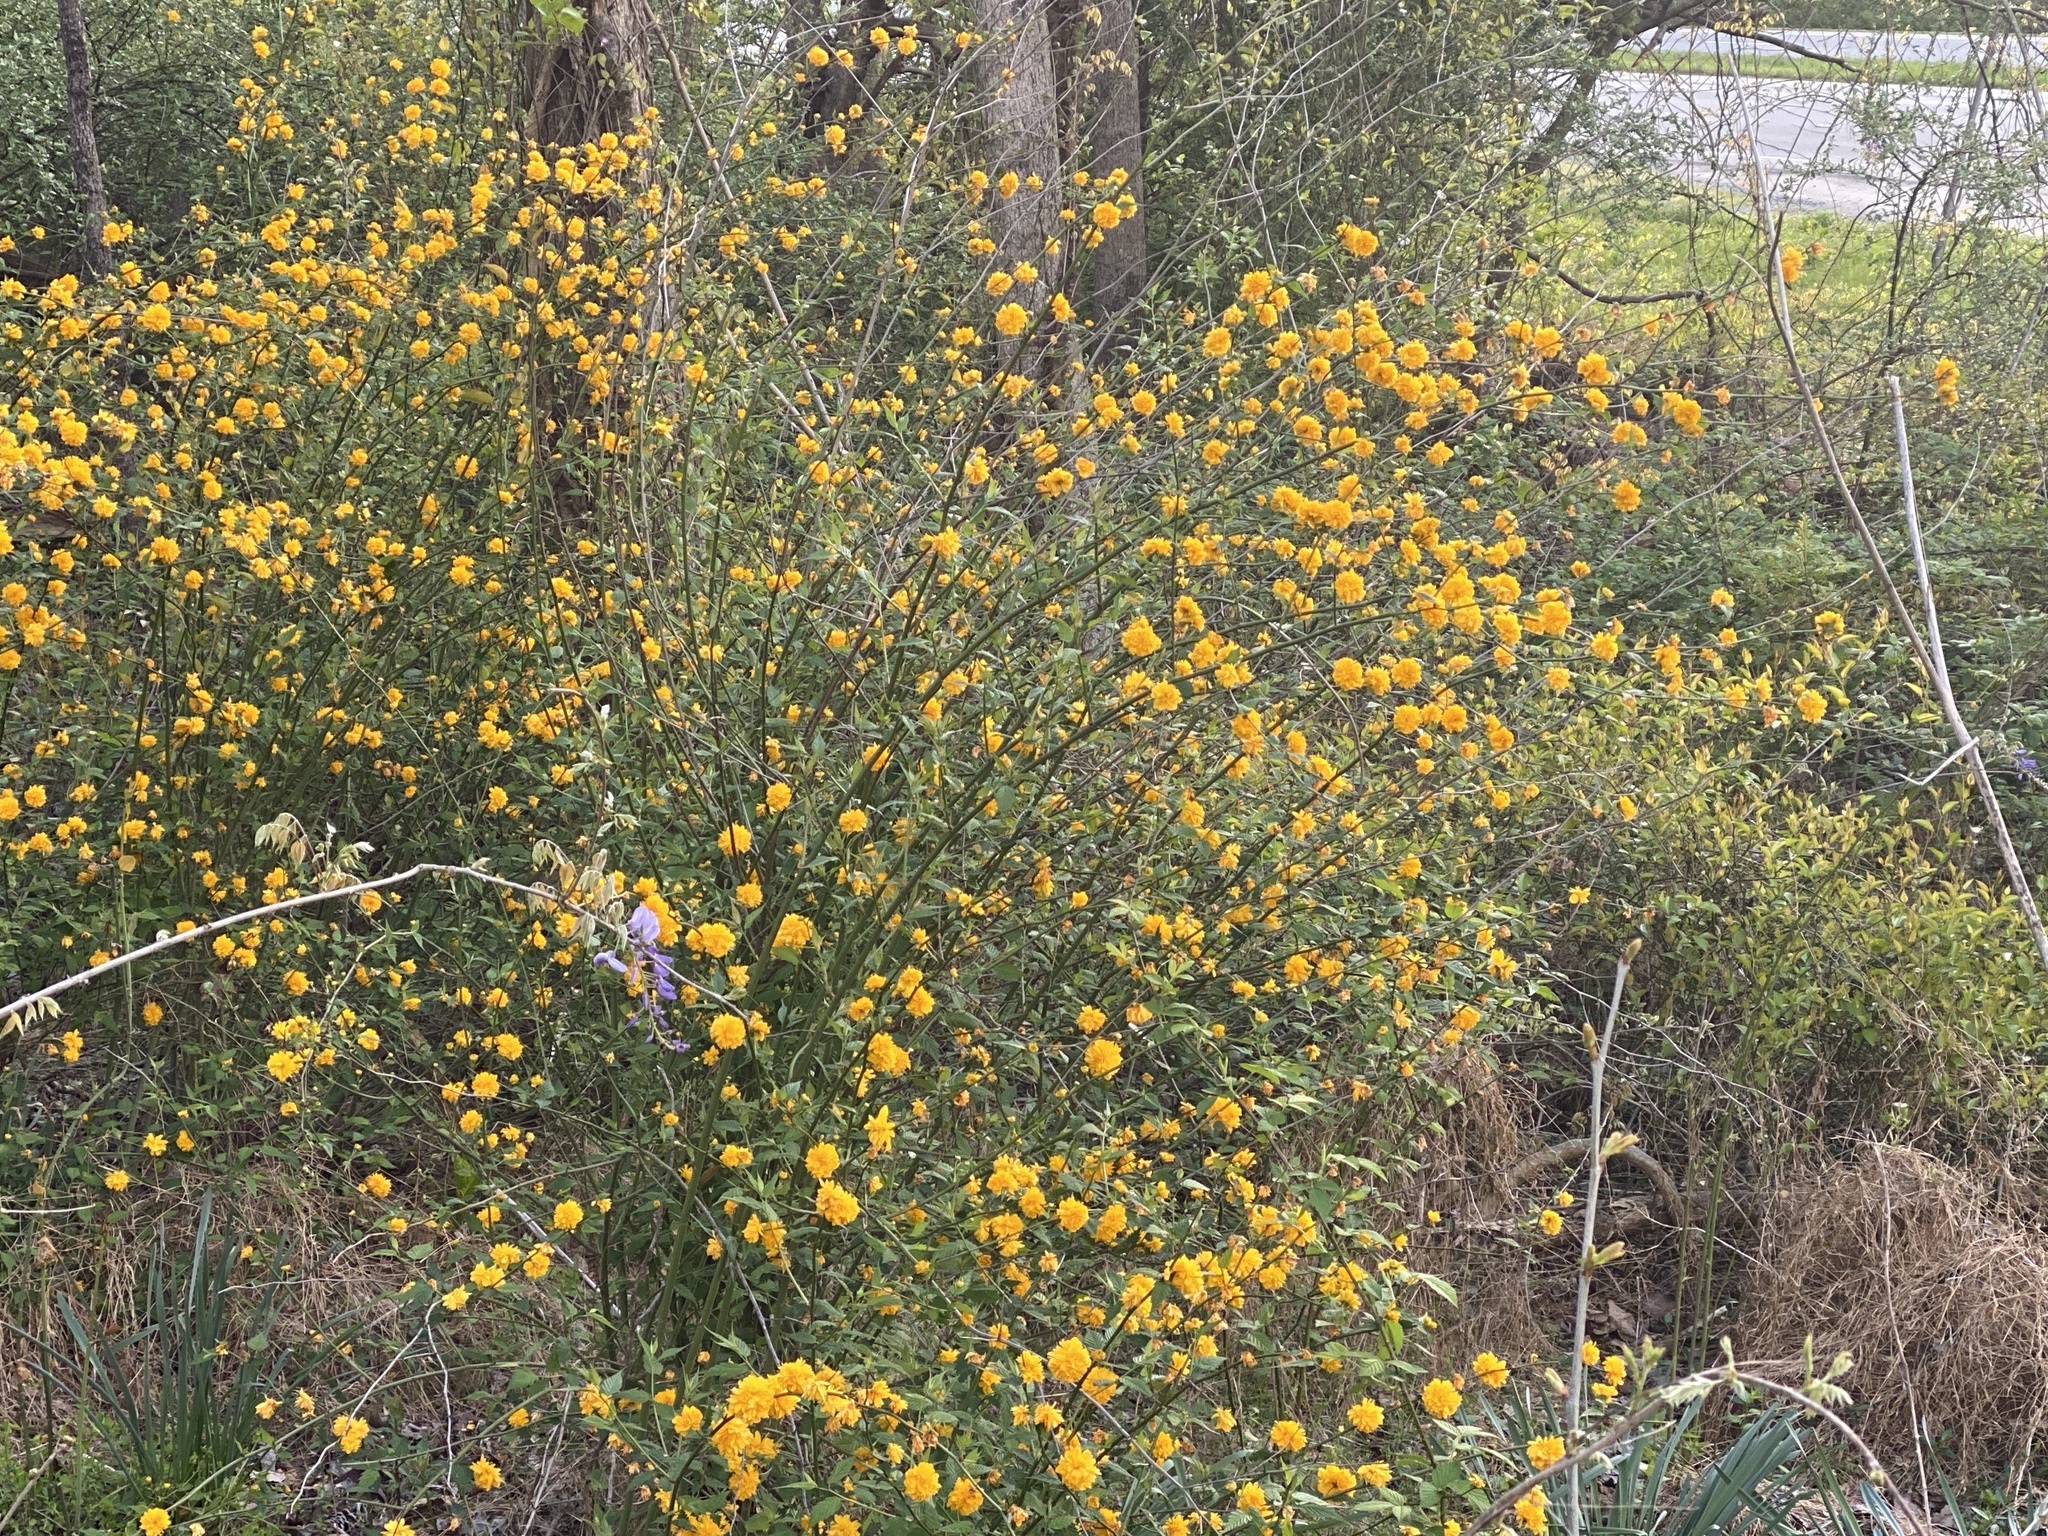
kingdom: Plantae
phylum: Tracheophyta
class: Magnoliopsida
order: Rosales
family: Rosaceae
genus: Kerria
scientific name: Kerria japonica
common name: Japanese kerria
